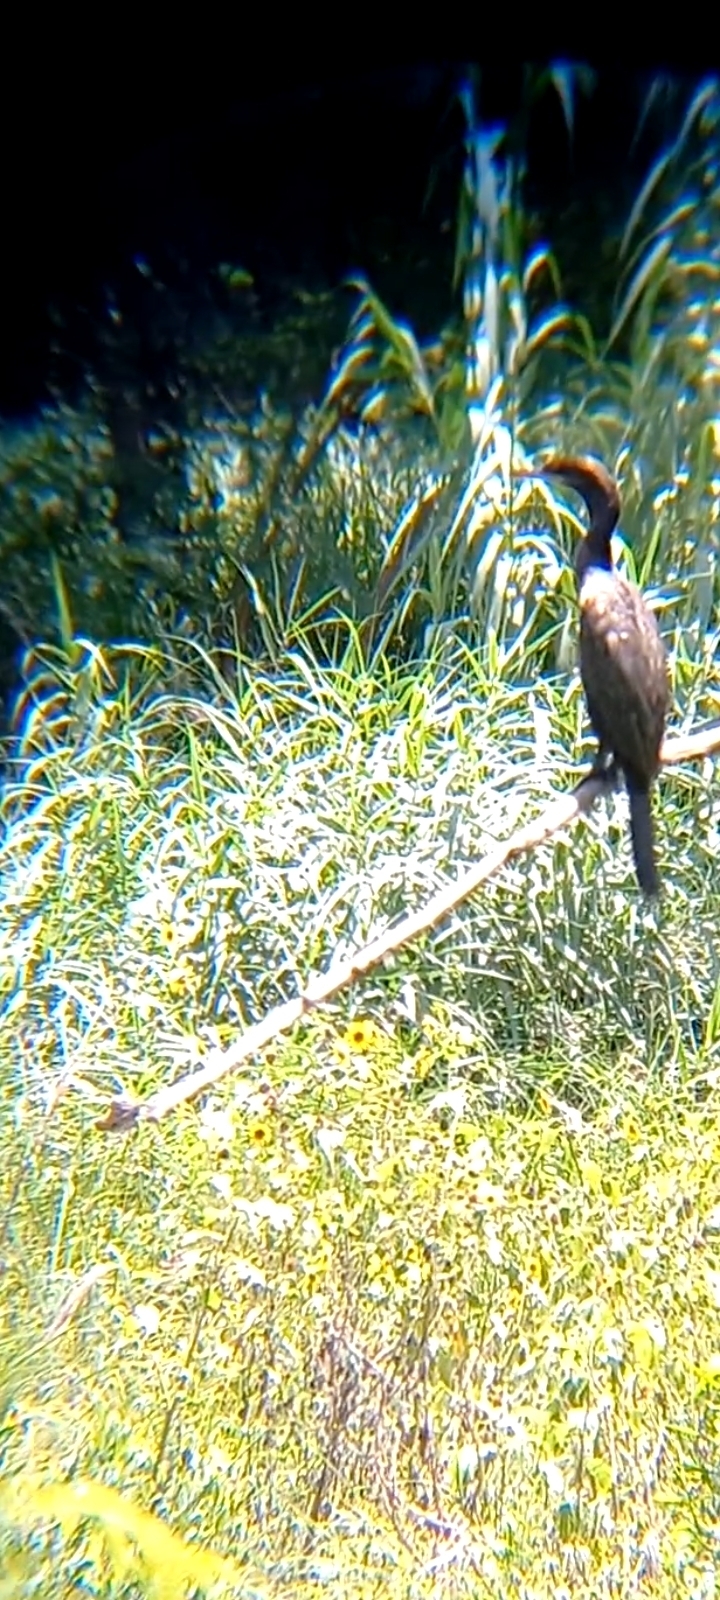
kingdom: Animalia
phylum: Chordata
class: Aves
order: Suliformes
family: Phalacrocoracidae
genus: Phalacrocorax
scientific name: Phalacrocorax brasilianus
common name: Neotropic cormorant
